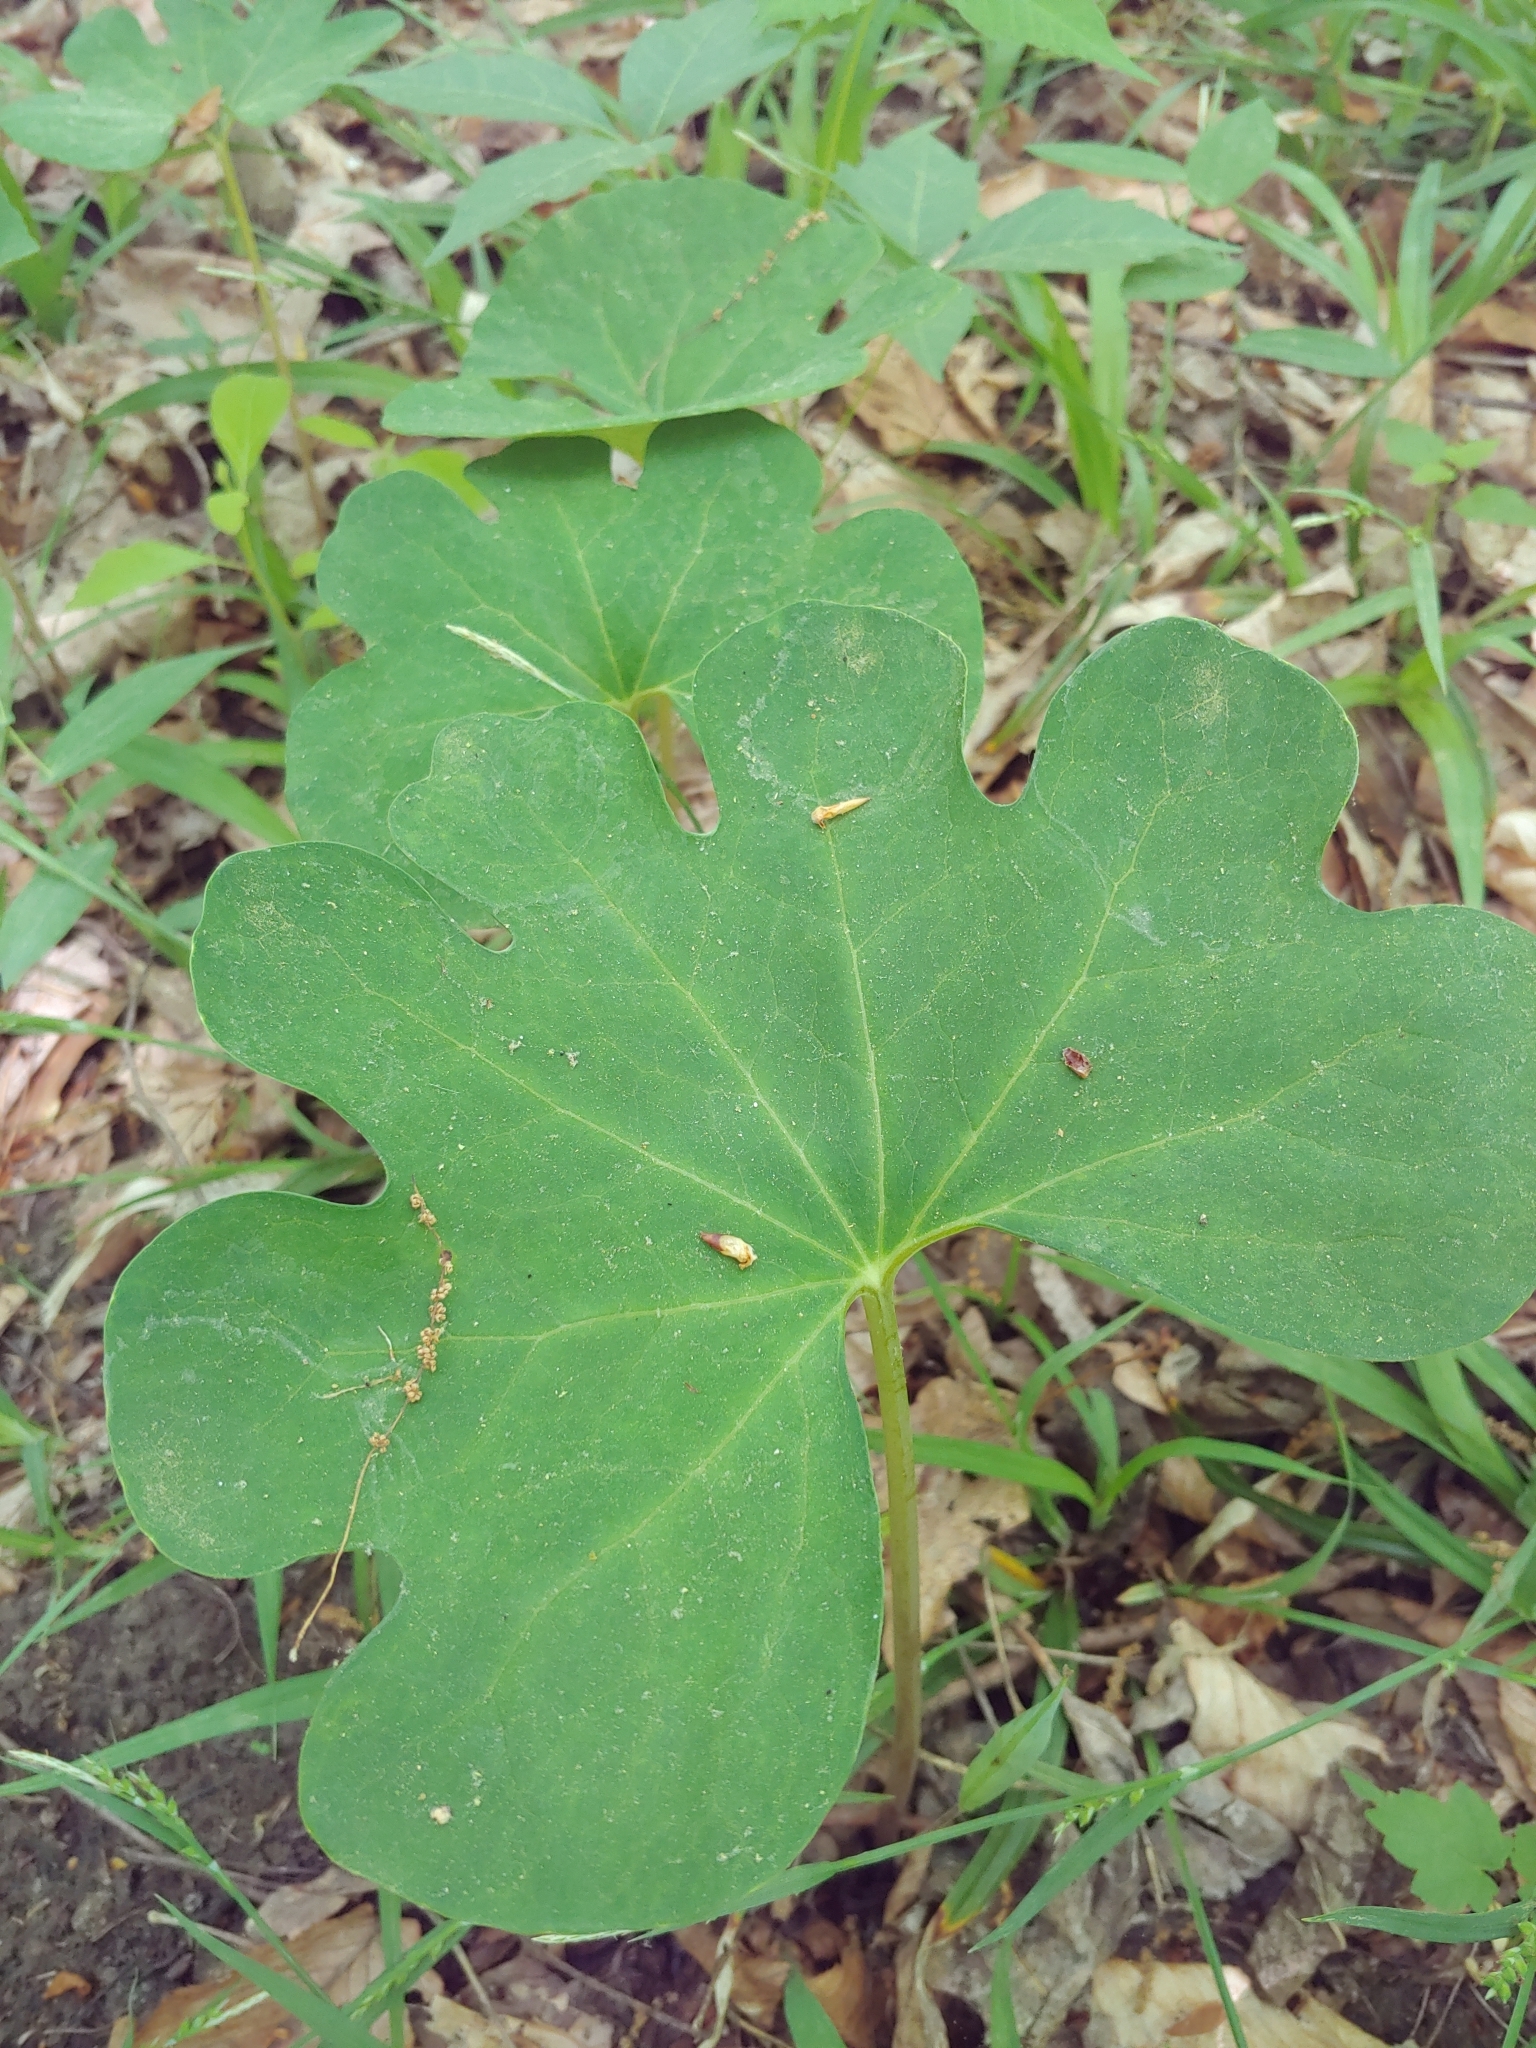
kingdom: Plantae
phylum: Tracheophyta
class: Magnoliopsida
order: Ranunculales
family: Papaveraceae
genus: Sanguinaria
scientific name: Sanguinaria canadensis
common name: Bloodroot
